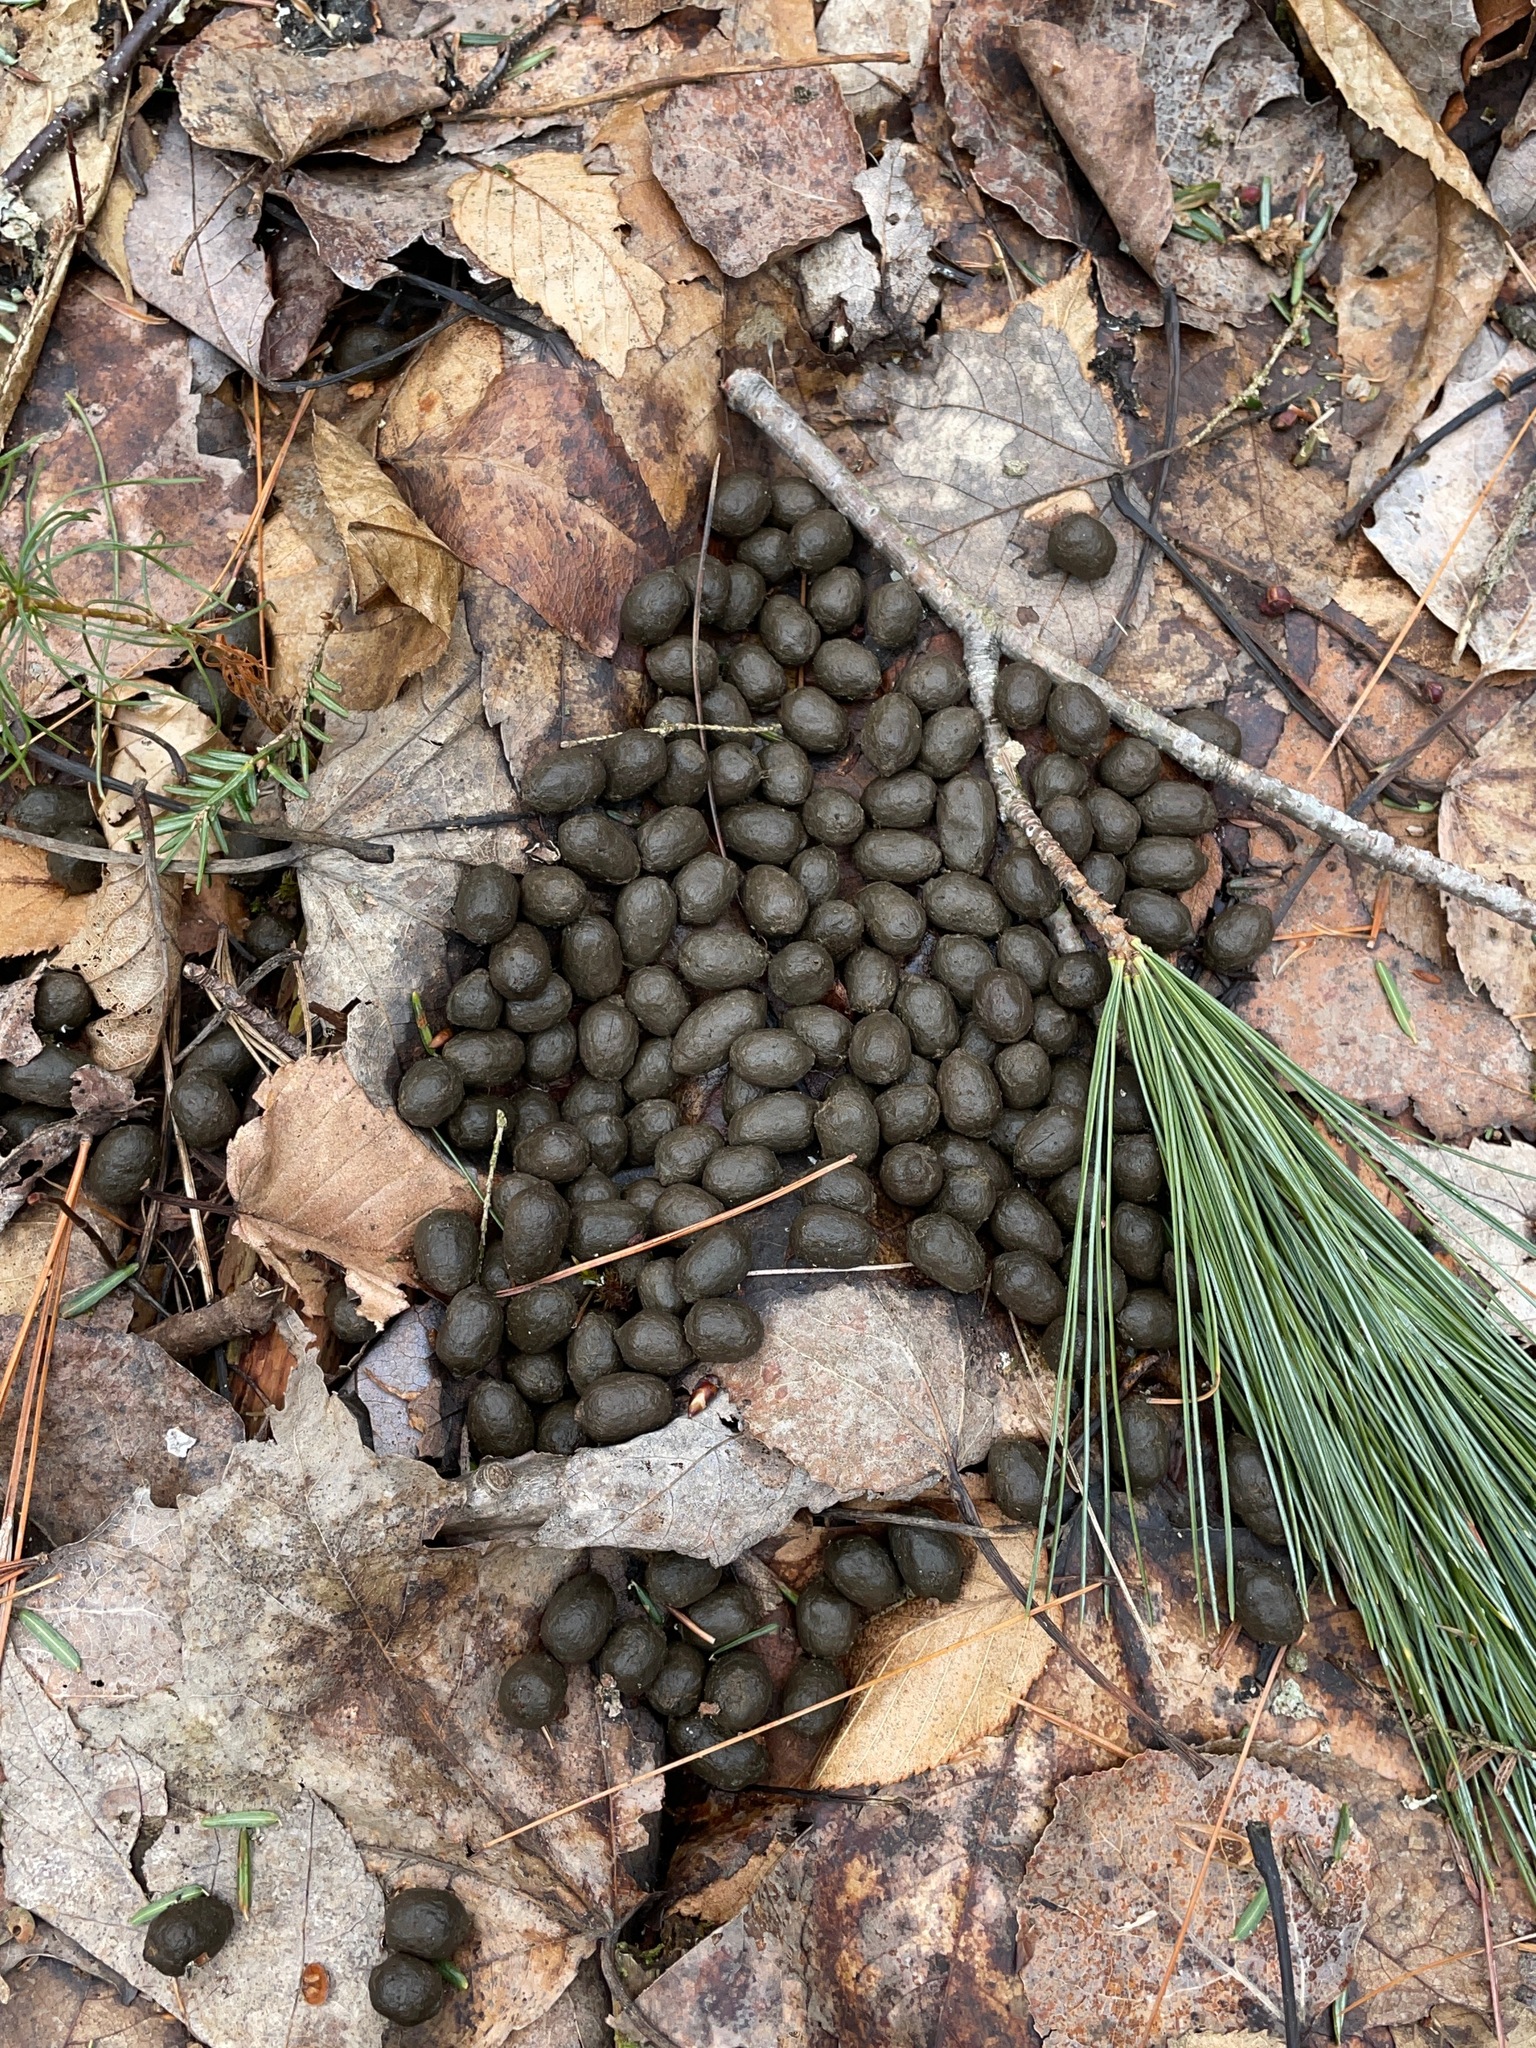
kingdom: Animalia
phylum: Chordata
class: Mammalia
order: Artiodactyla
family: Cervidae
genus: Odocoileus
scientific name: Odocoileus virginianus
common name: White-tailed deer
